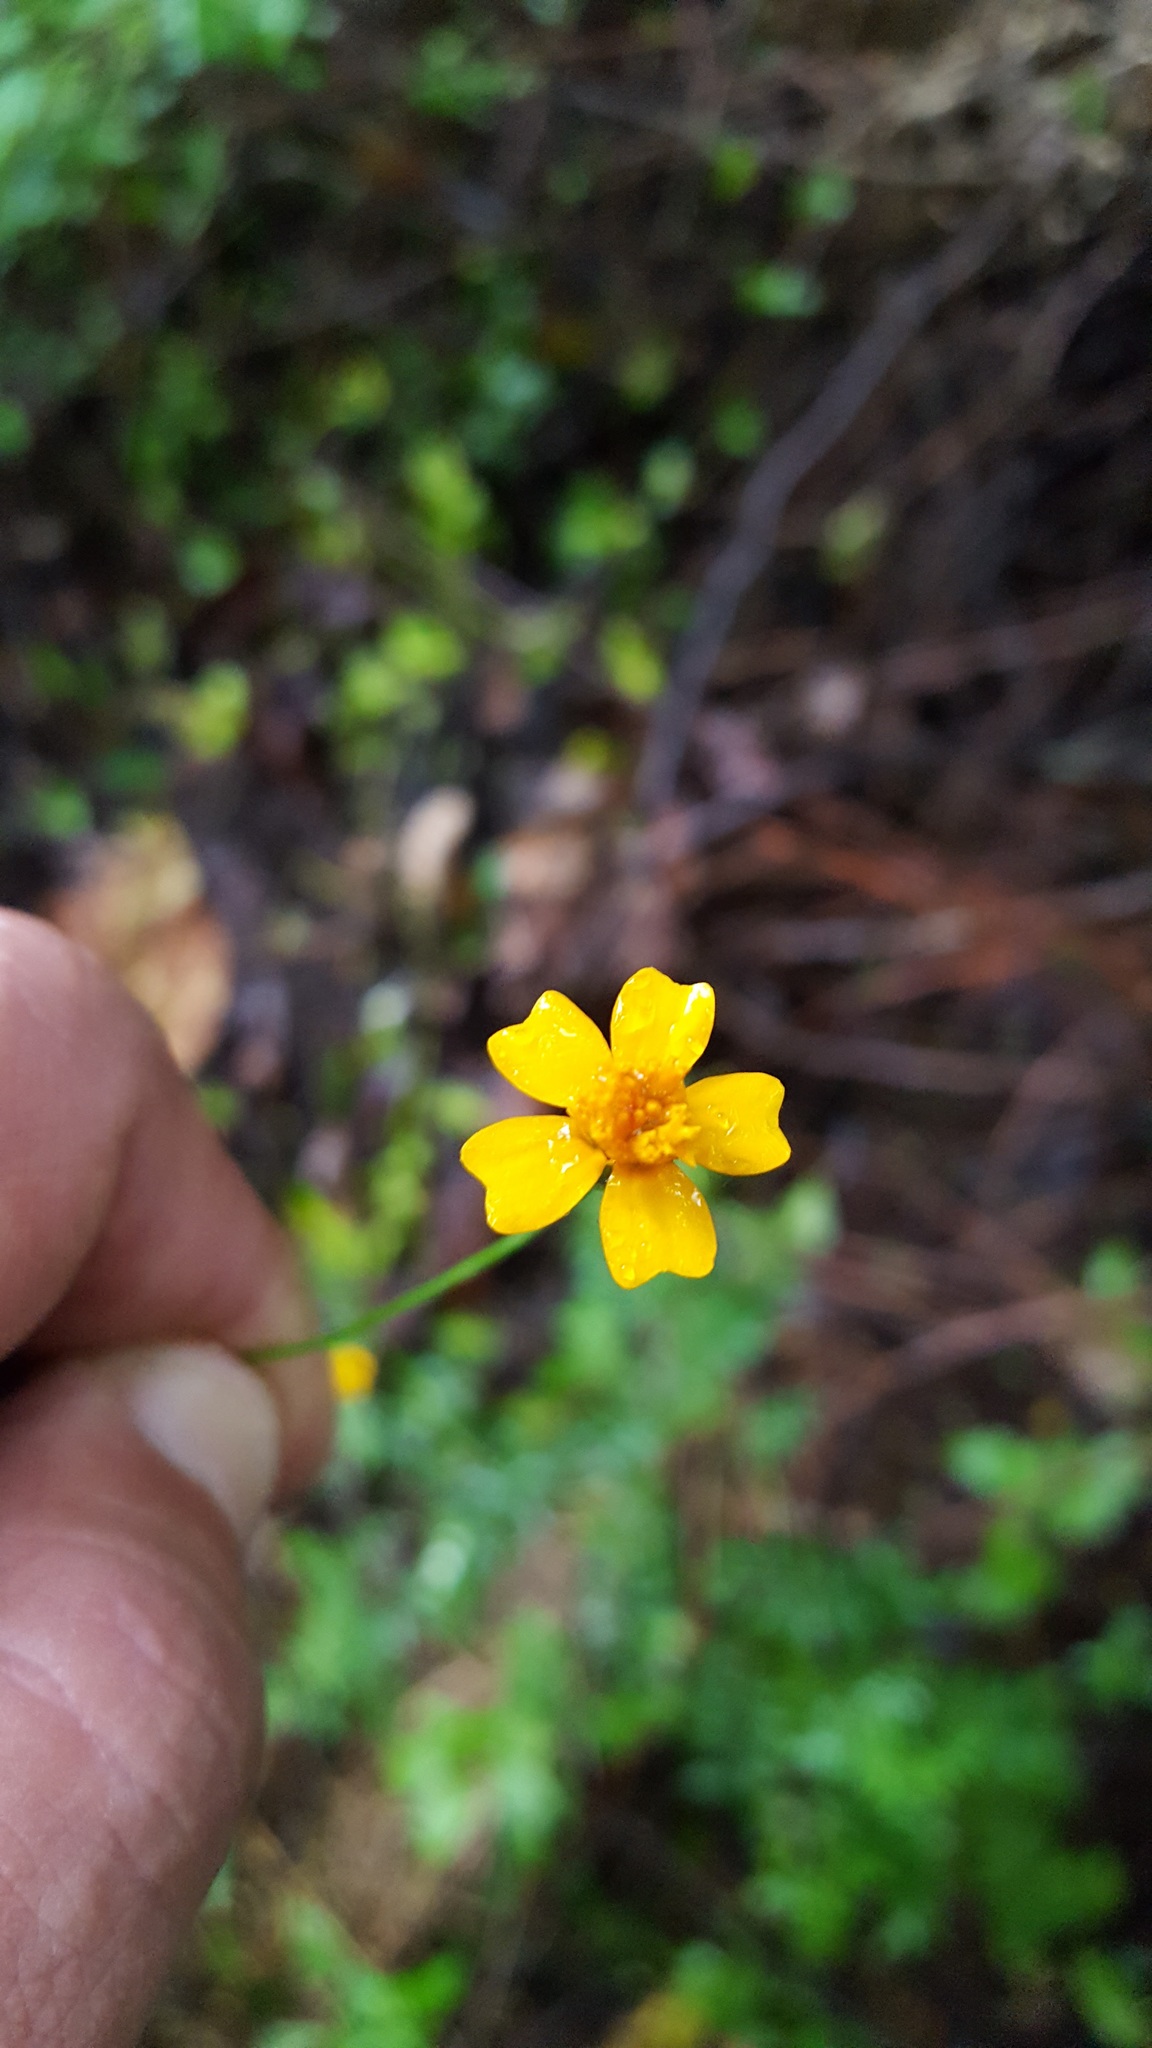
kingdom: Plantae
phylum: Tracheophyta
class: Magnoliopsida
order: Asterales
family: Asteraceae
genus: Tagetes
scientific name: Tagetes tenuifolia
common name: Signet marigold
